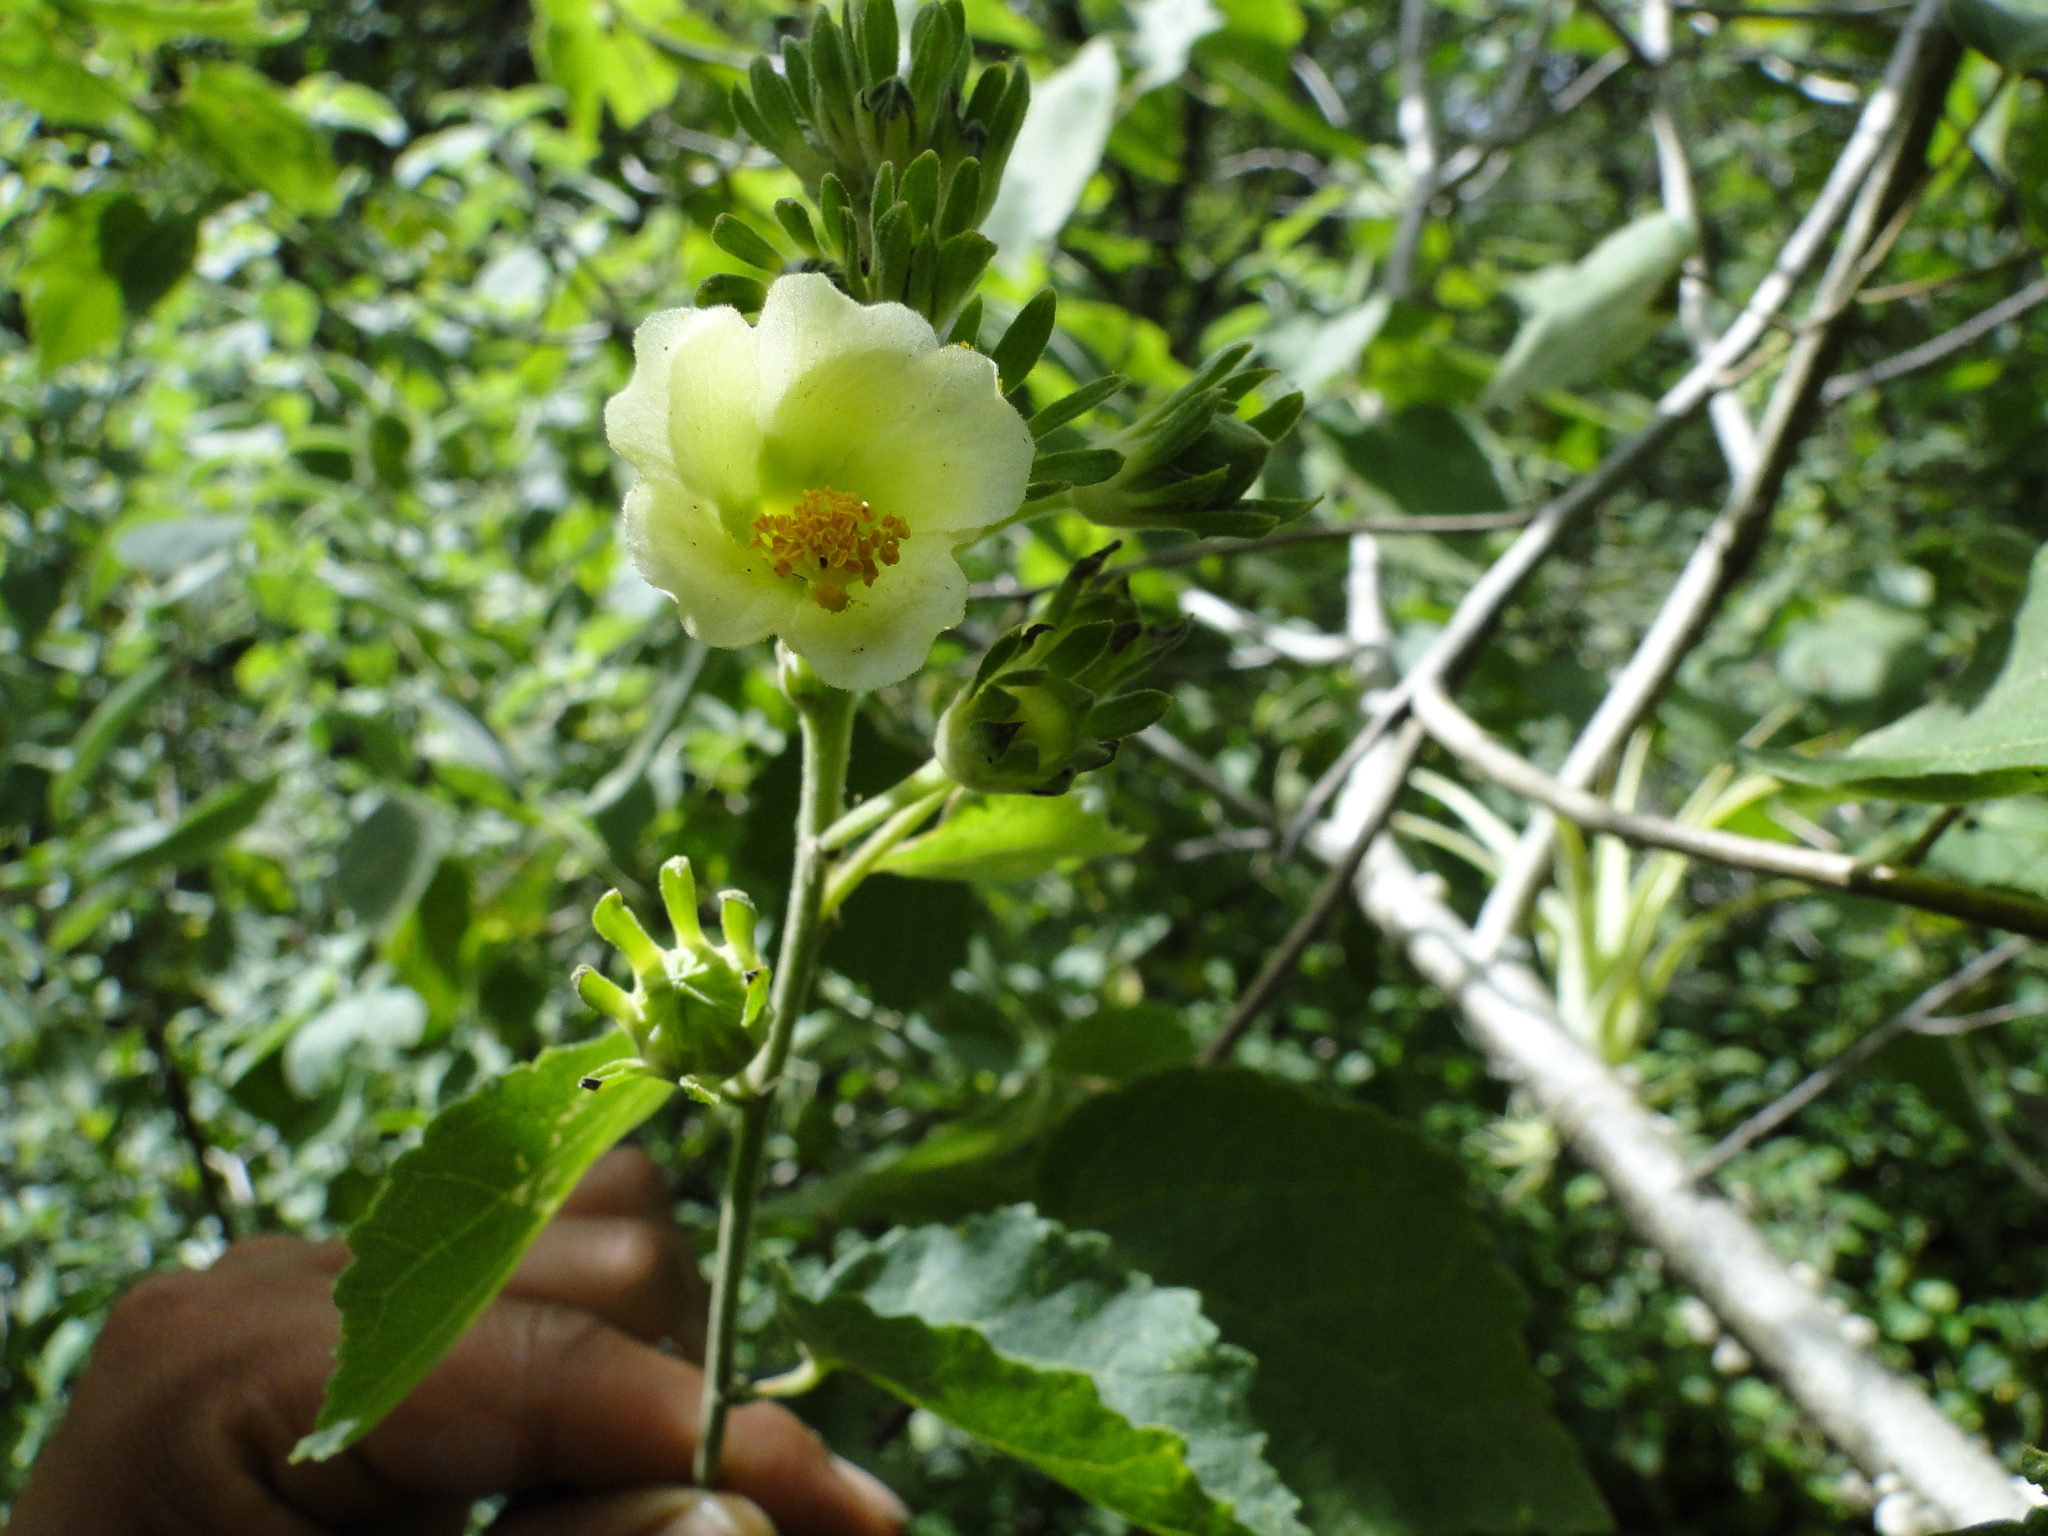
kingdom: Plantae
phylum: Tracheophyta
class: Magnoliopsida
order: Malvales
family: Malvaceae
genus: Hibiscus
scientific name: Hibiscus elegans
